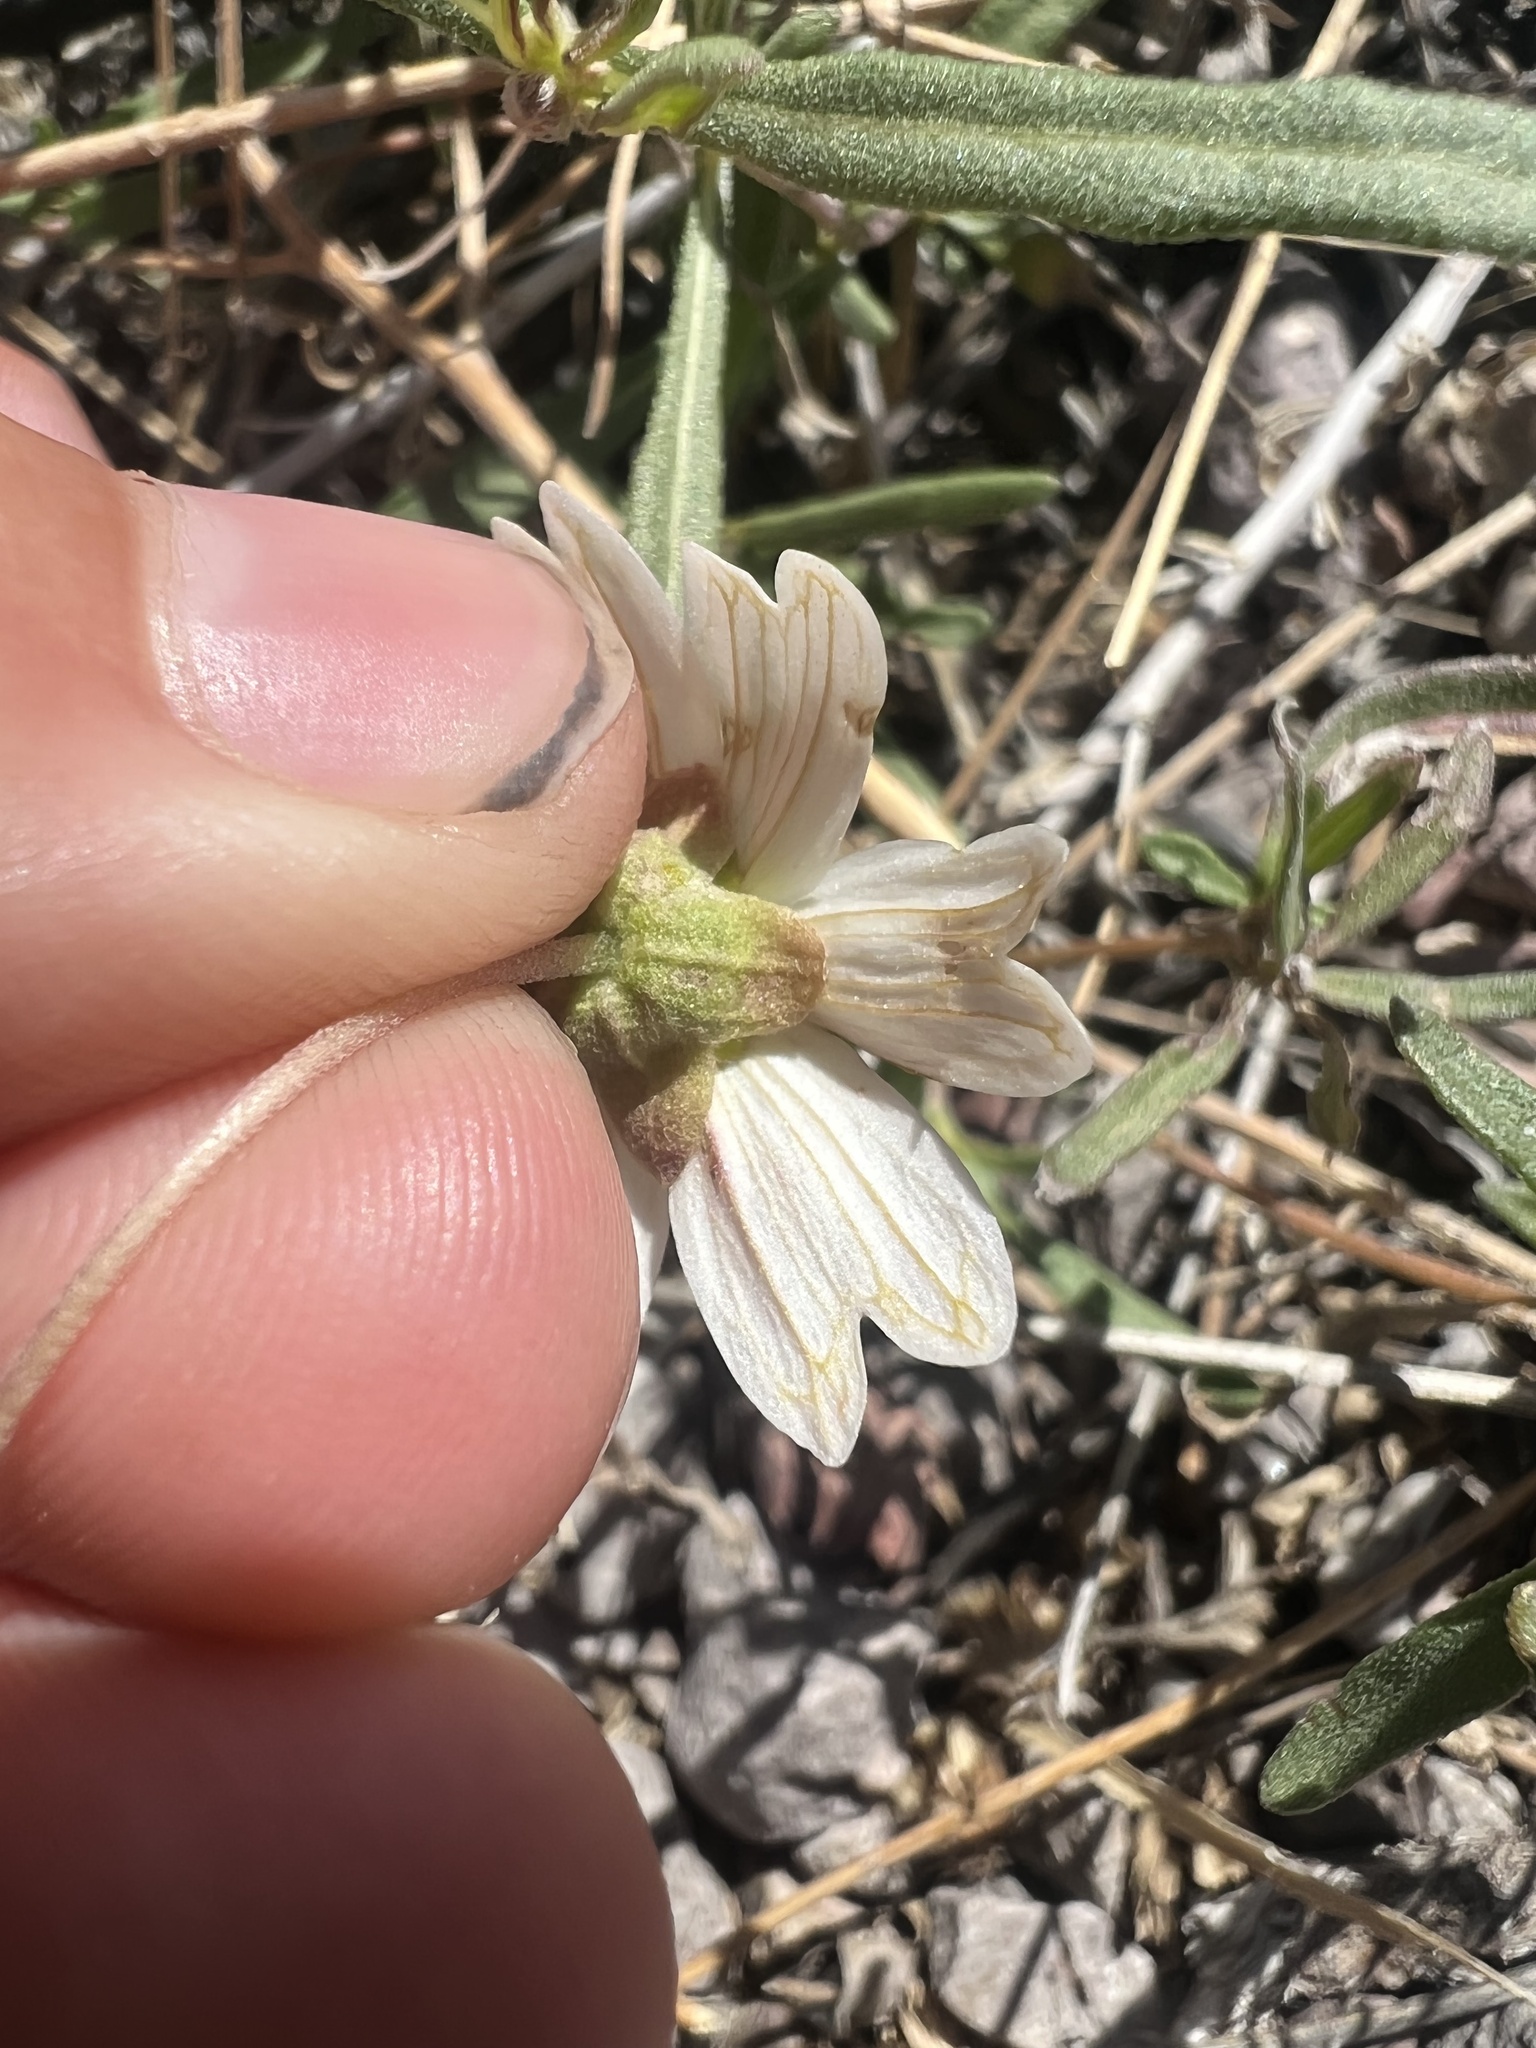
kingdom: Plantae
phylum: Tracheophyta
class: Magnoliopsida
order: Asterales
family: Asteraceae
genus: Melampodium
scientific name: Melampodium leucanthum
